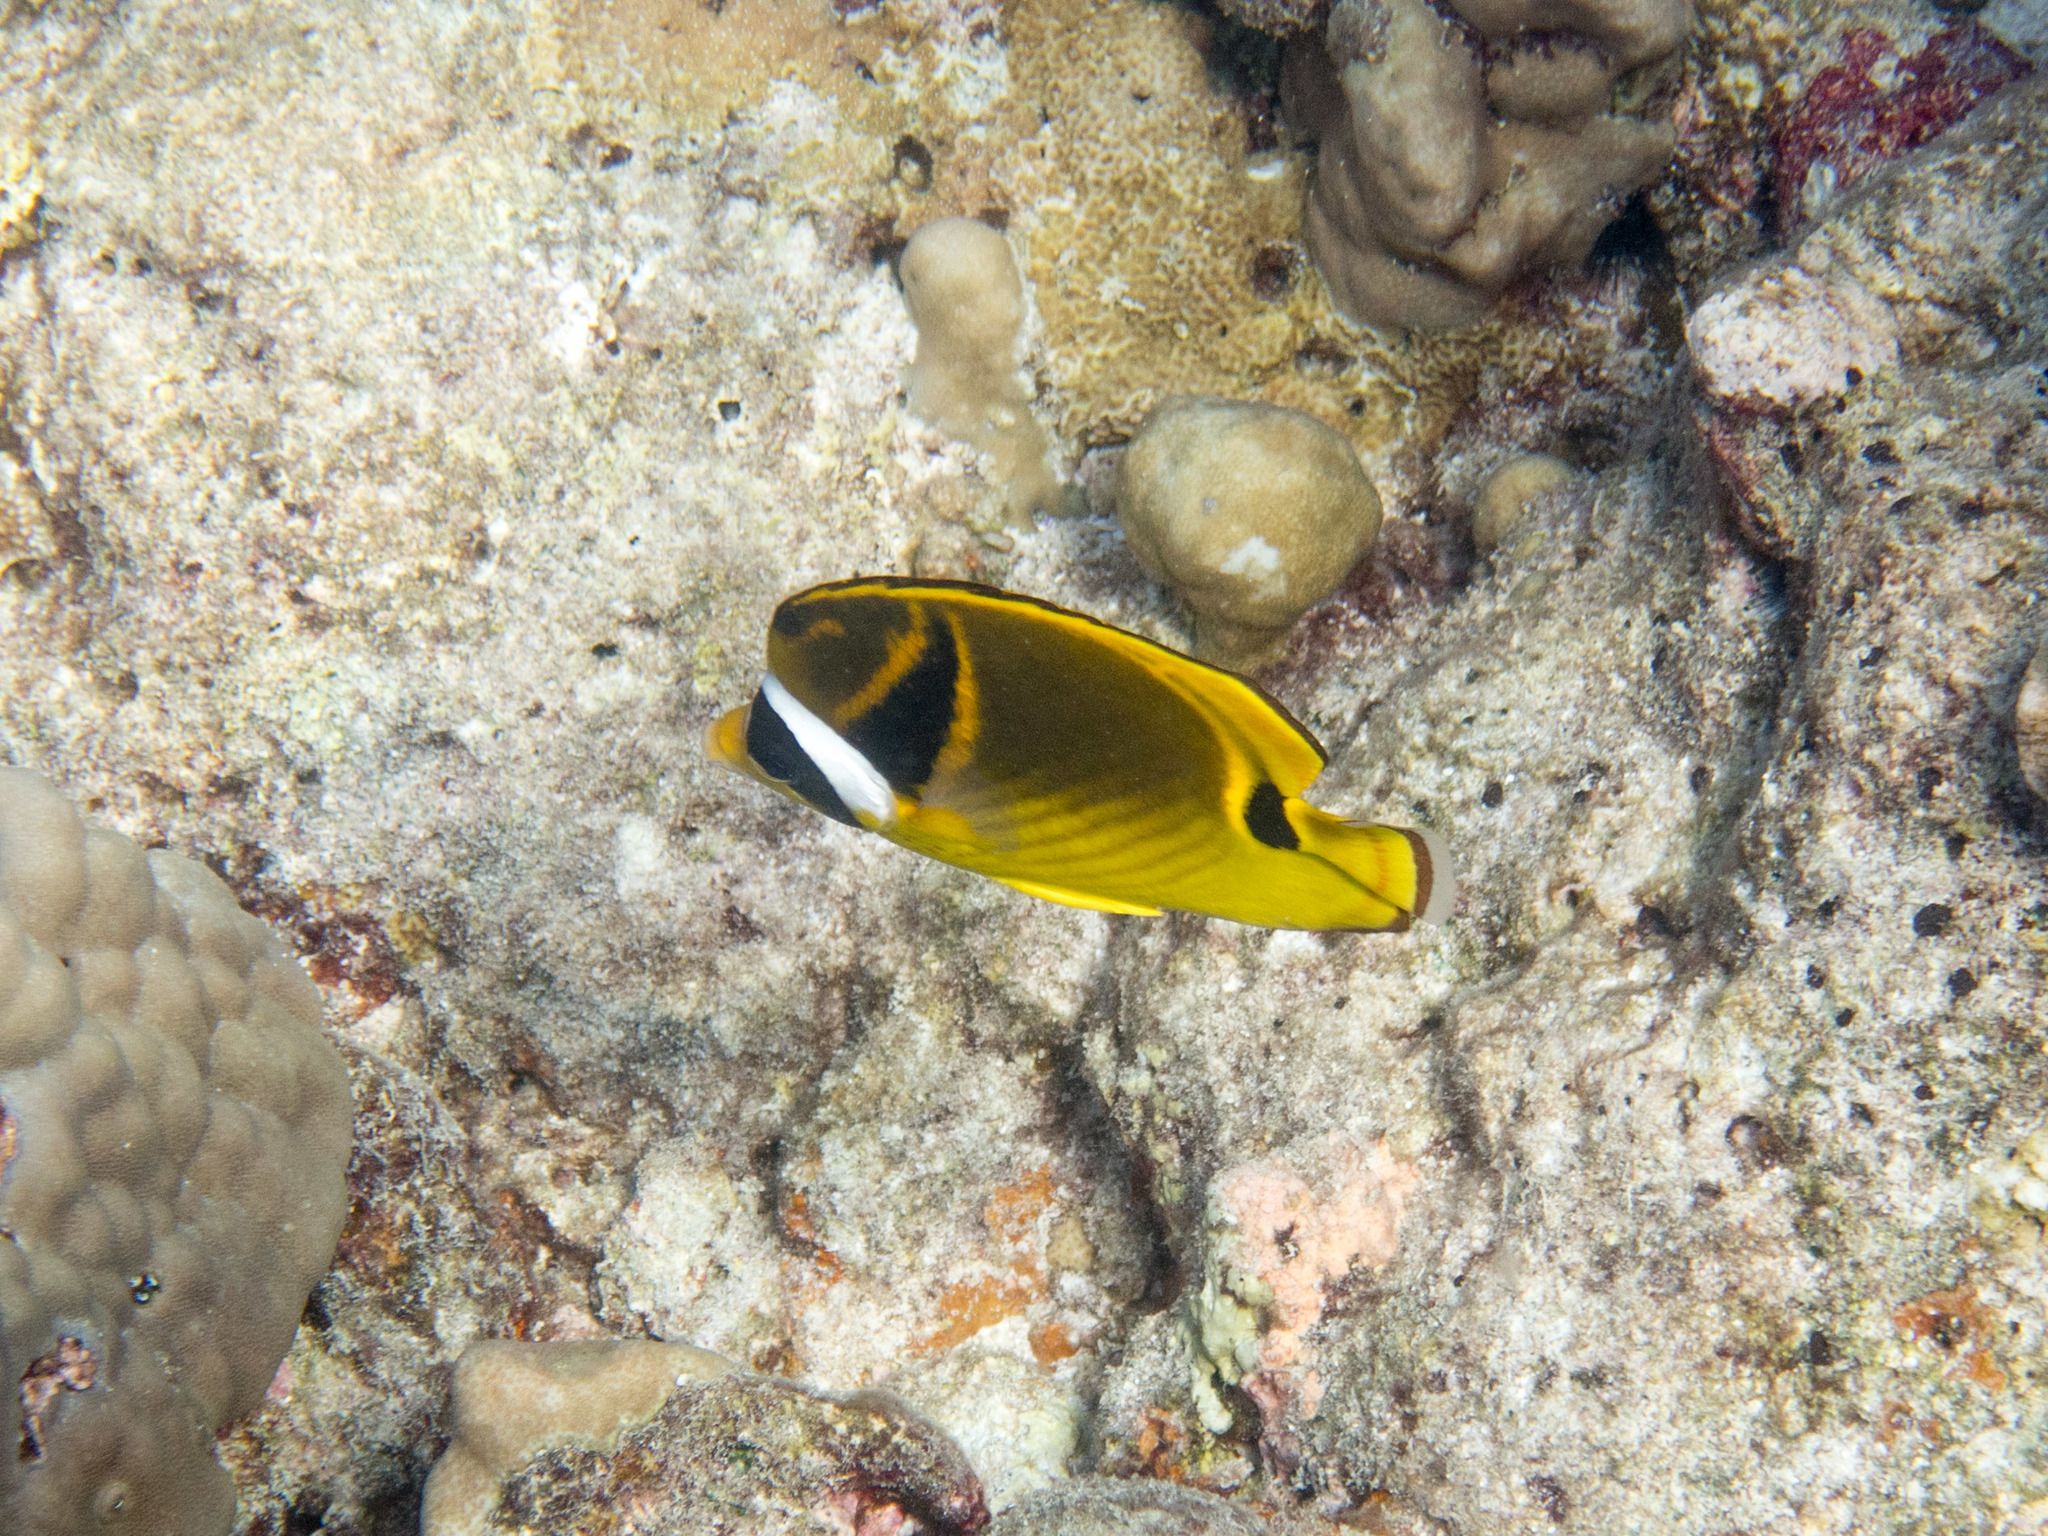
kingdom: Animalia
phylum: Chordata
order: Perciformes
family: Chaetodontidae
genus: Chaetodon
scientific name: Chaetodon lunula
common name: Raccoon butterflyfish
